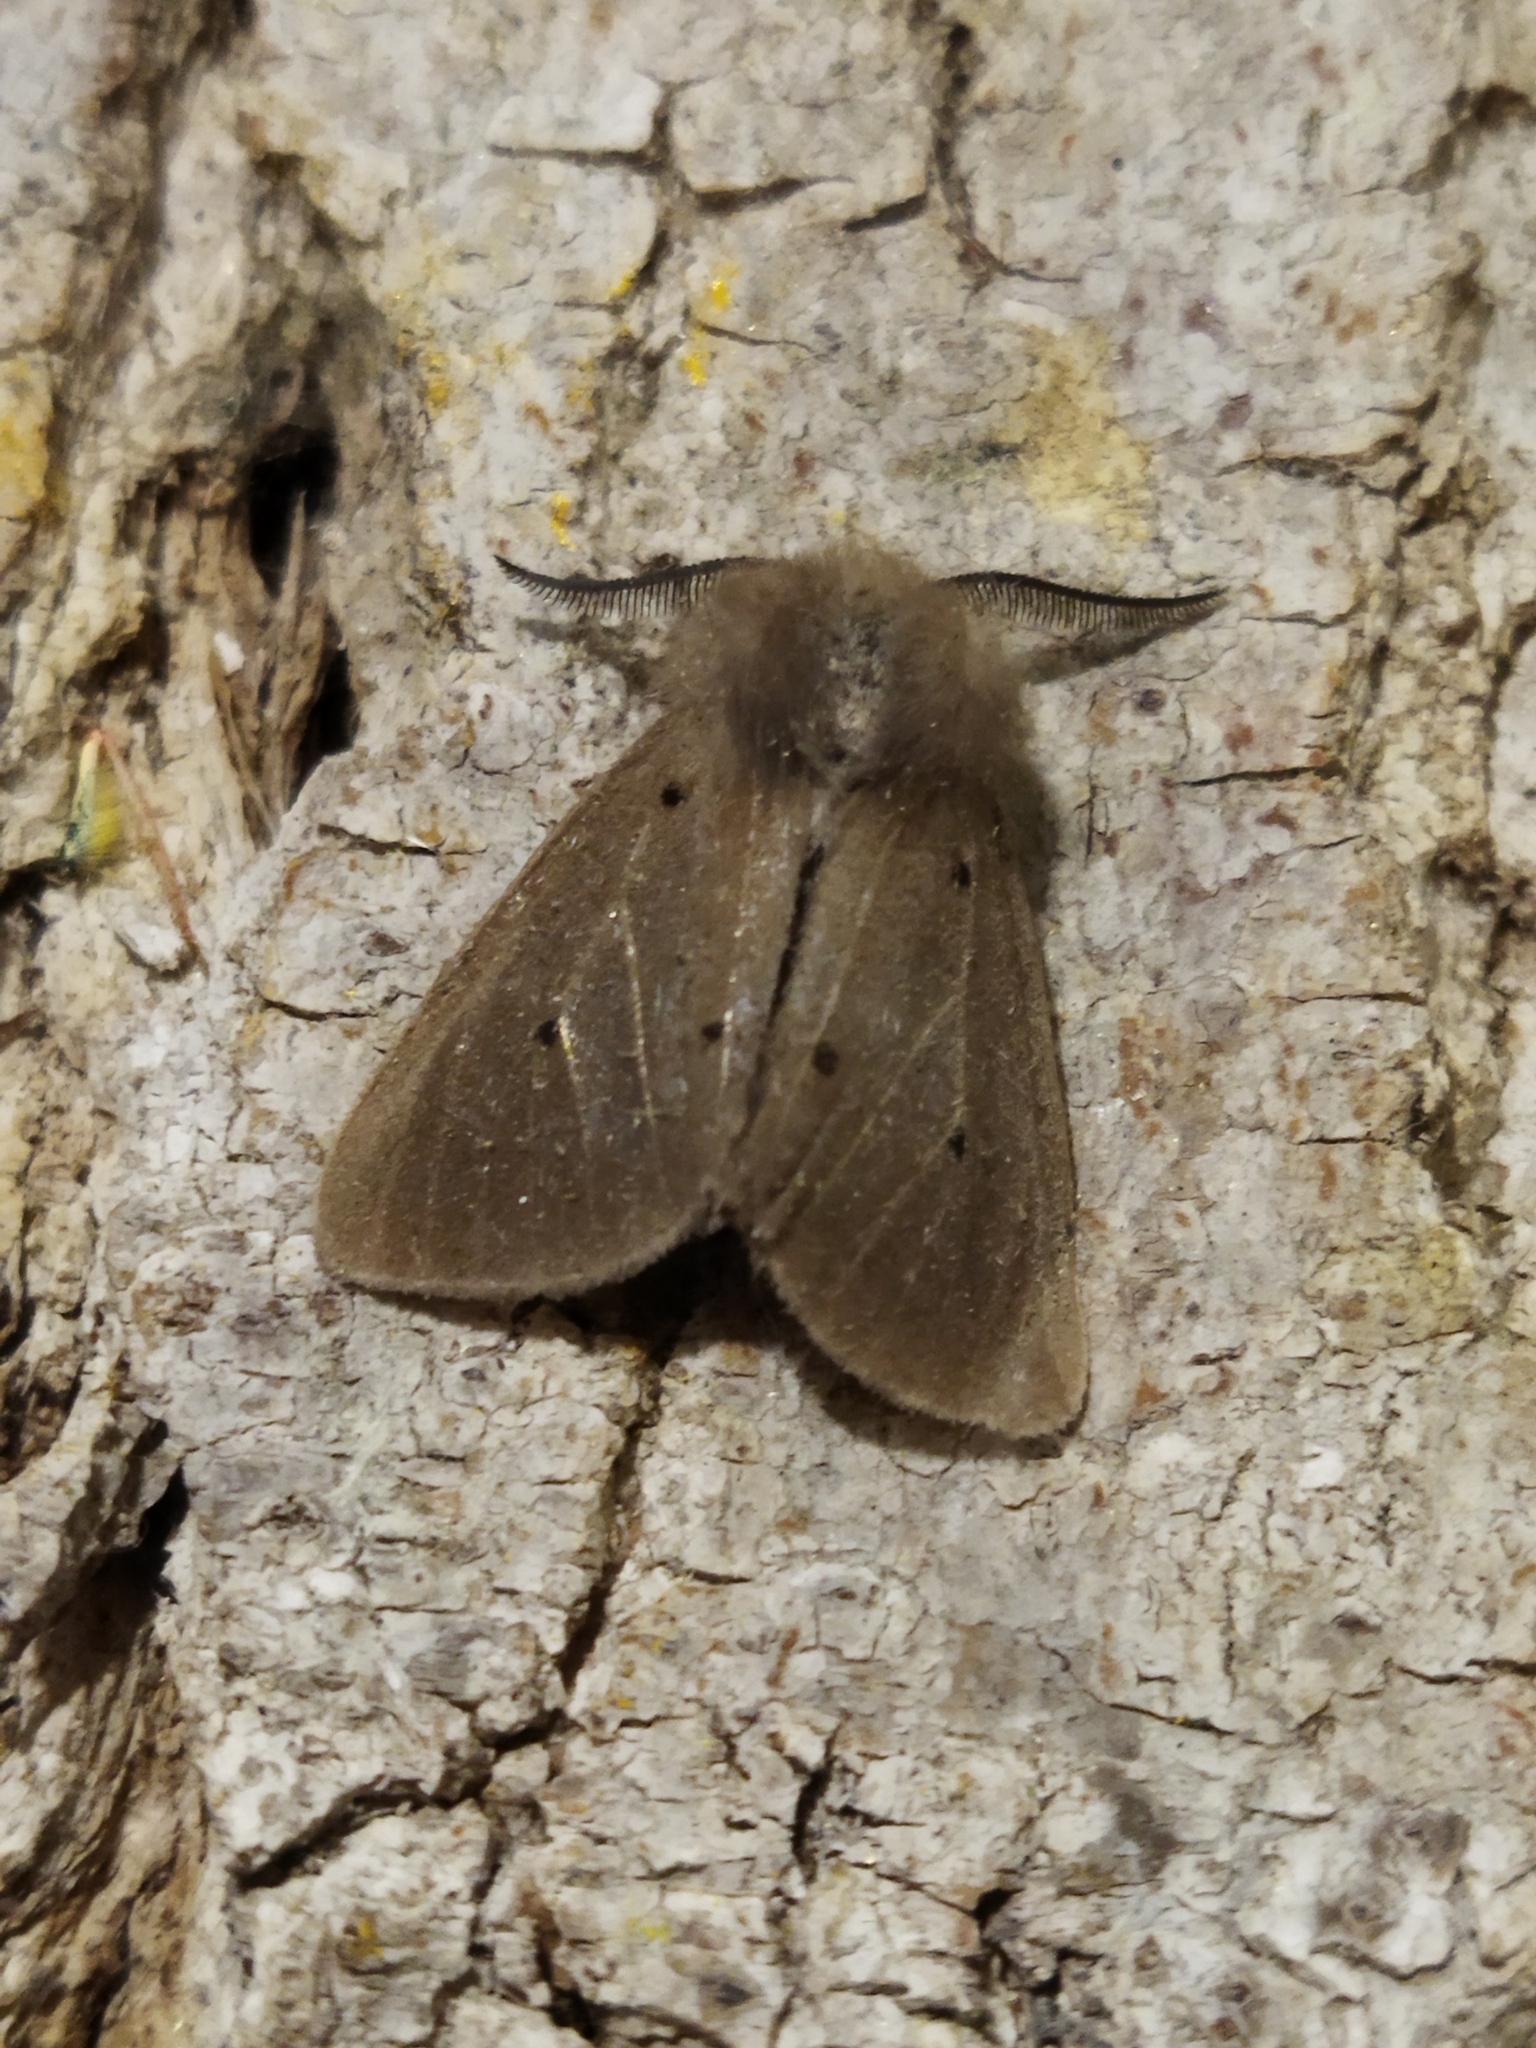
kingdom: Animalia
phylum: Arthropoda
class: Insecta
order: Lepidoptera
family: Erebidae
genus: Diaphora
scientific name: Diaphora mendica
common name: Muslin moth
